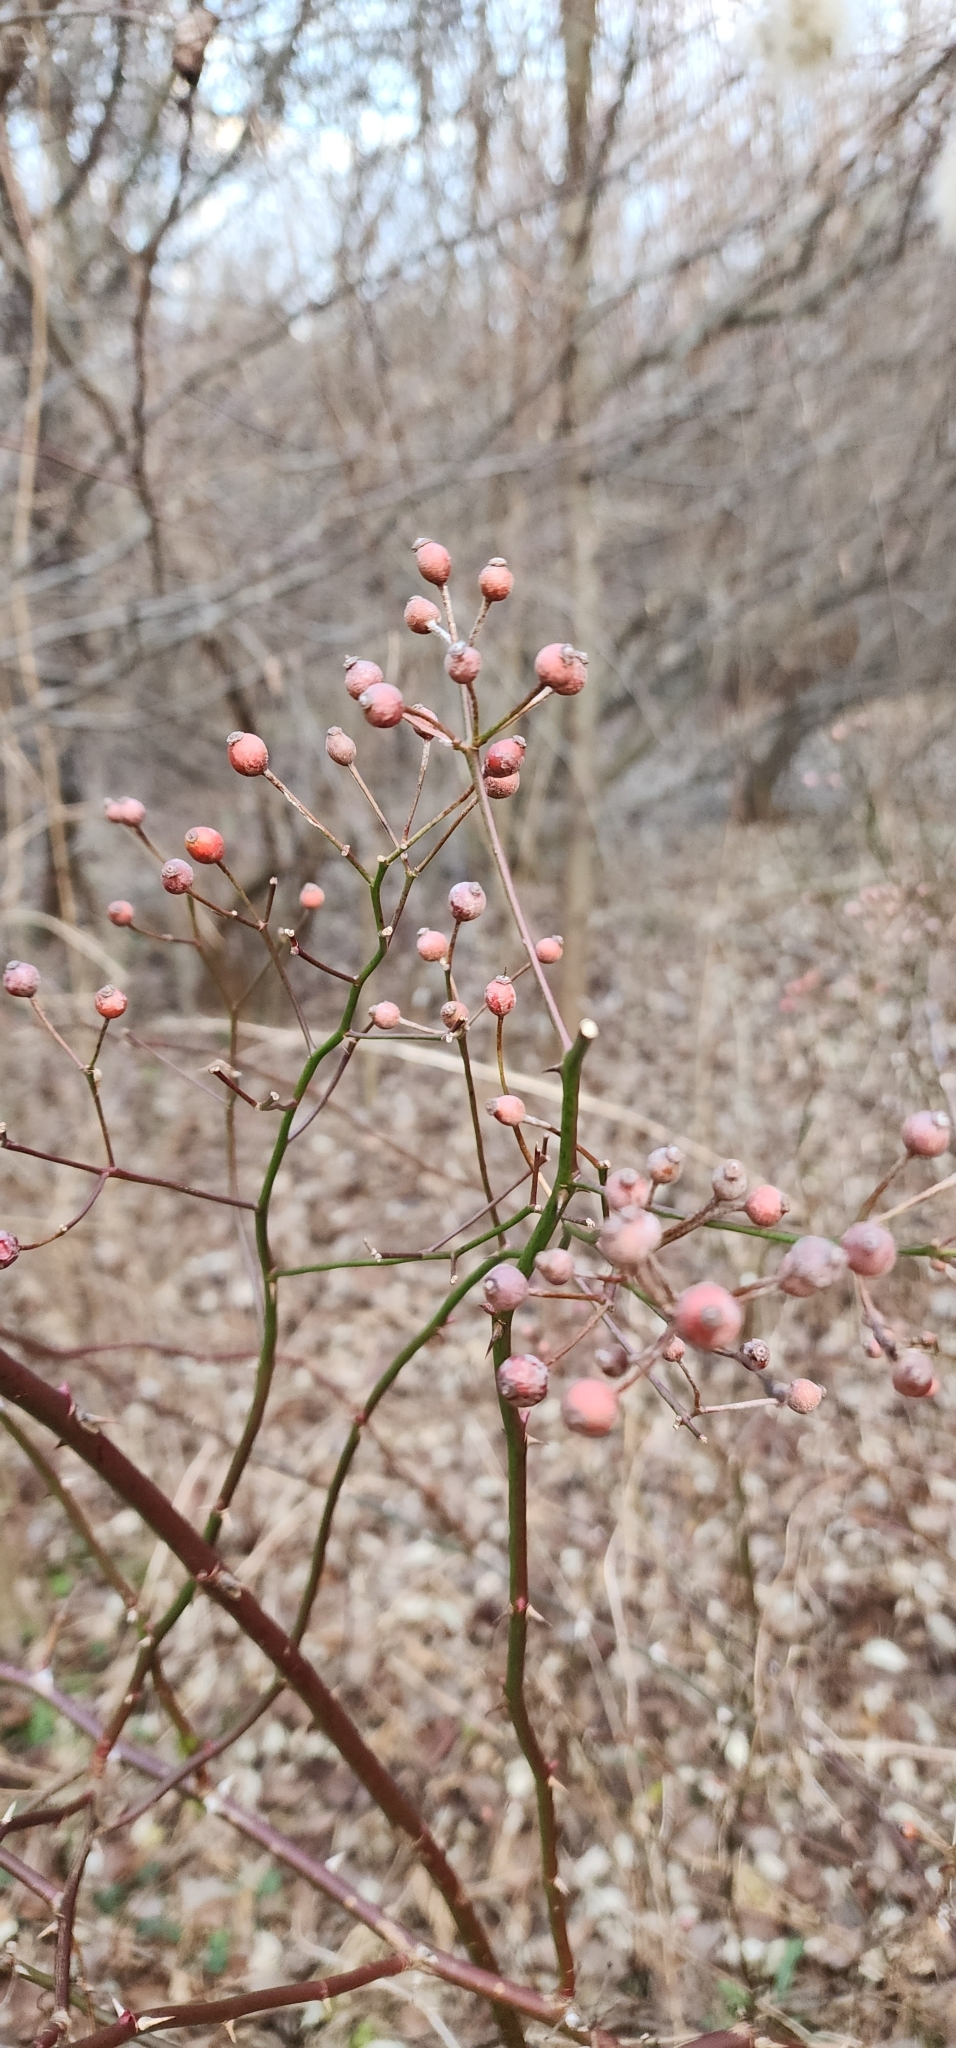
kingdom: Plantae
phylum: Tracheophyta
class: Magnoliopsida
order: Rosales
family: Rosaceae
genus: Rosa
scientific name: Rosa multiflora
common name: Multiflora rose
